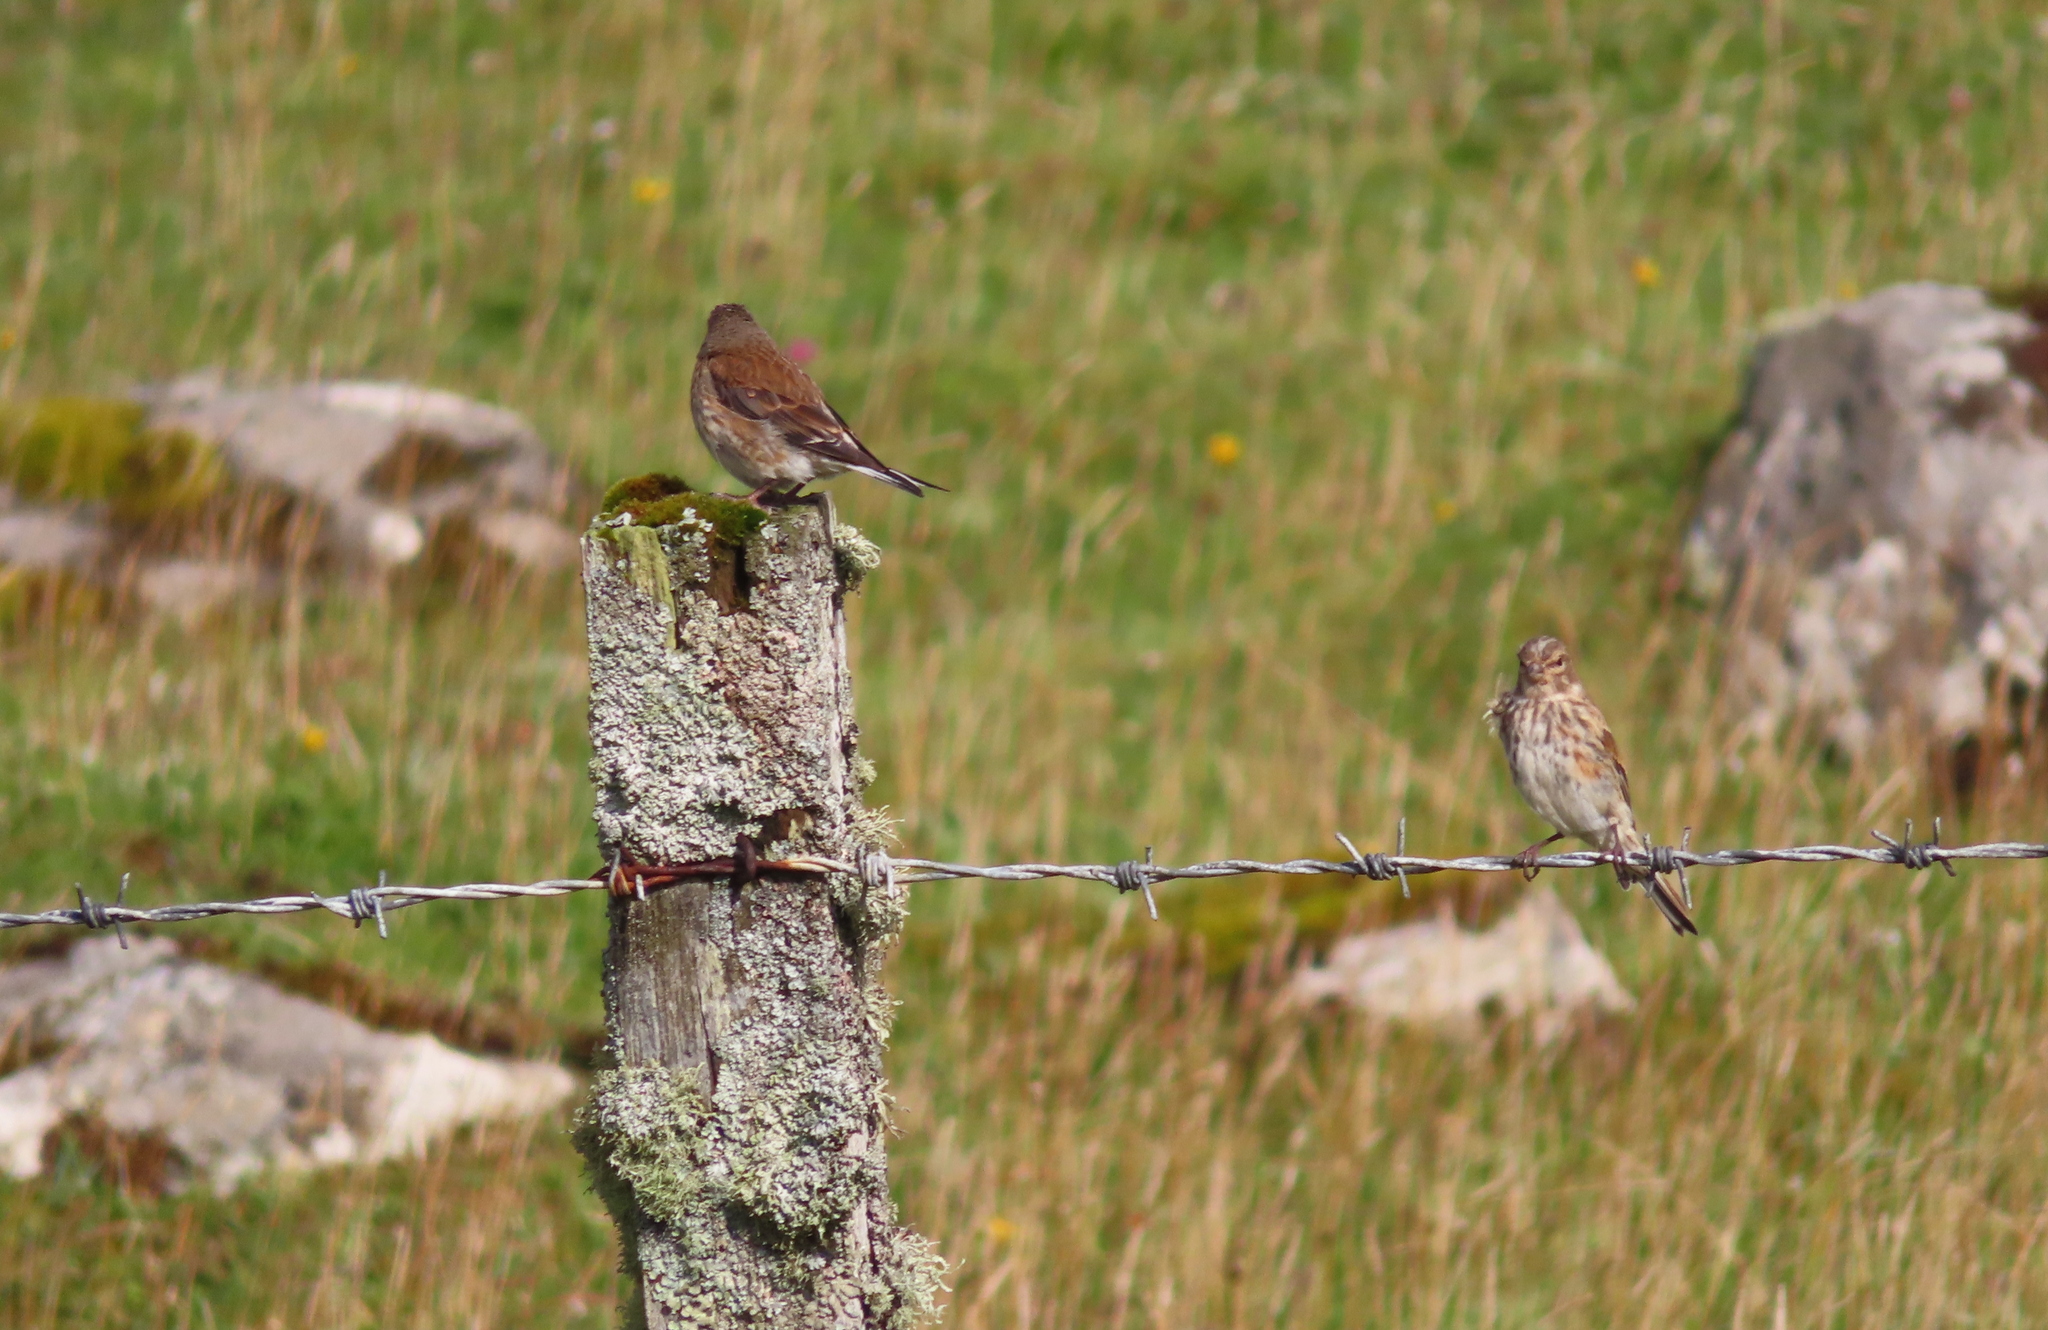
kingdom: Animalia
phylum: Chordata
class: Aves
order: Passeriformes
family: Fringillidae
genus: Linaria
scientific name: Linaria cannabina
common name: Common linnet
